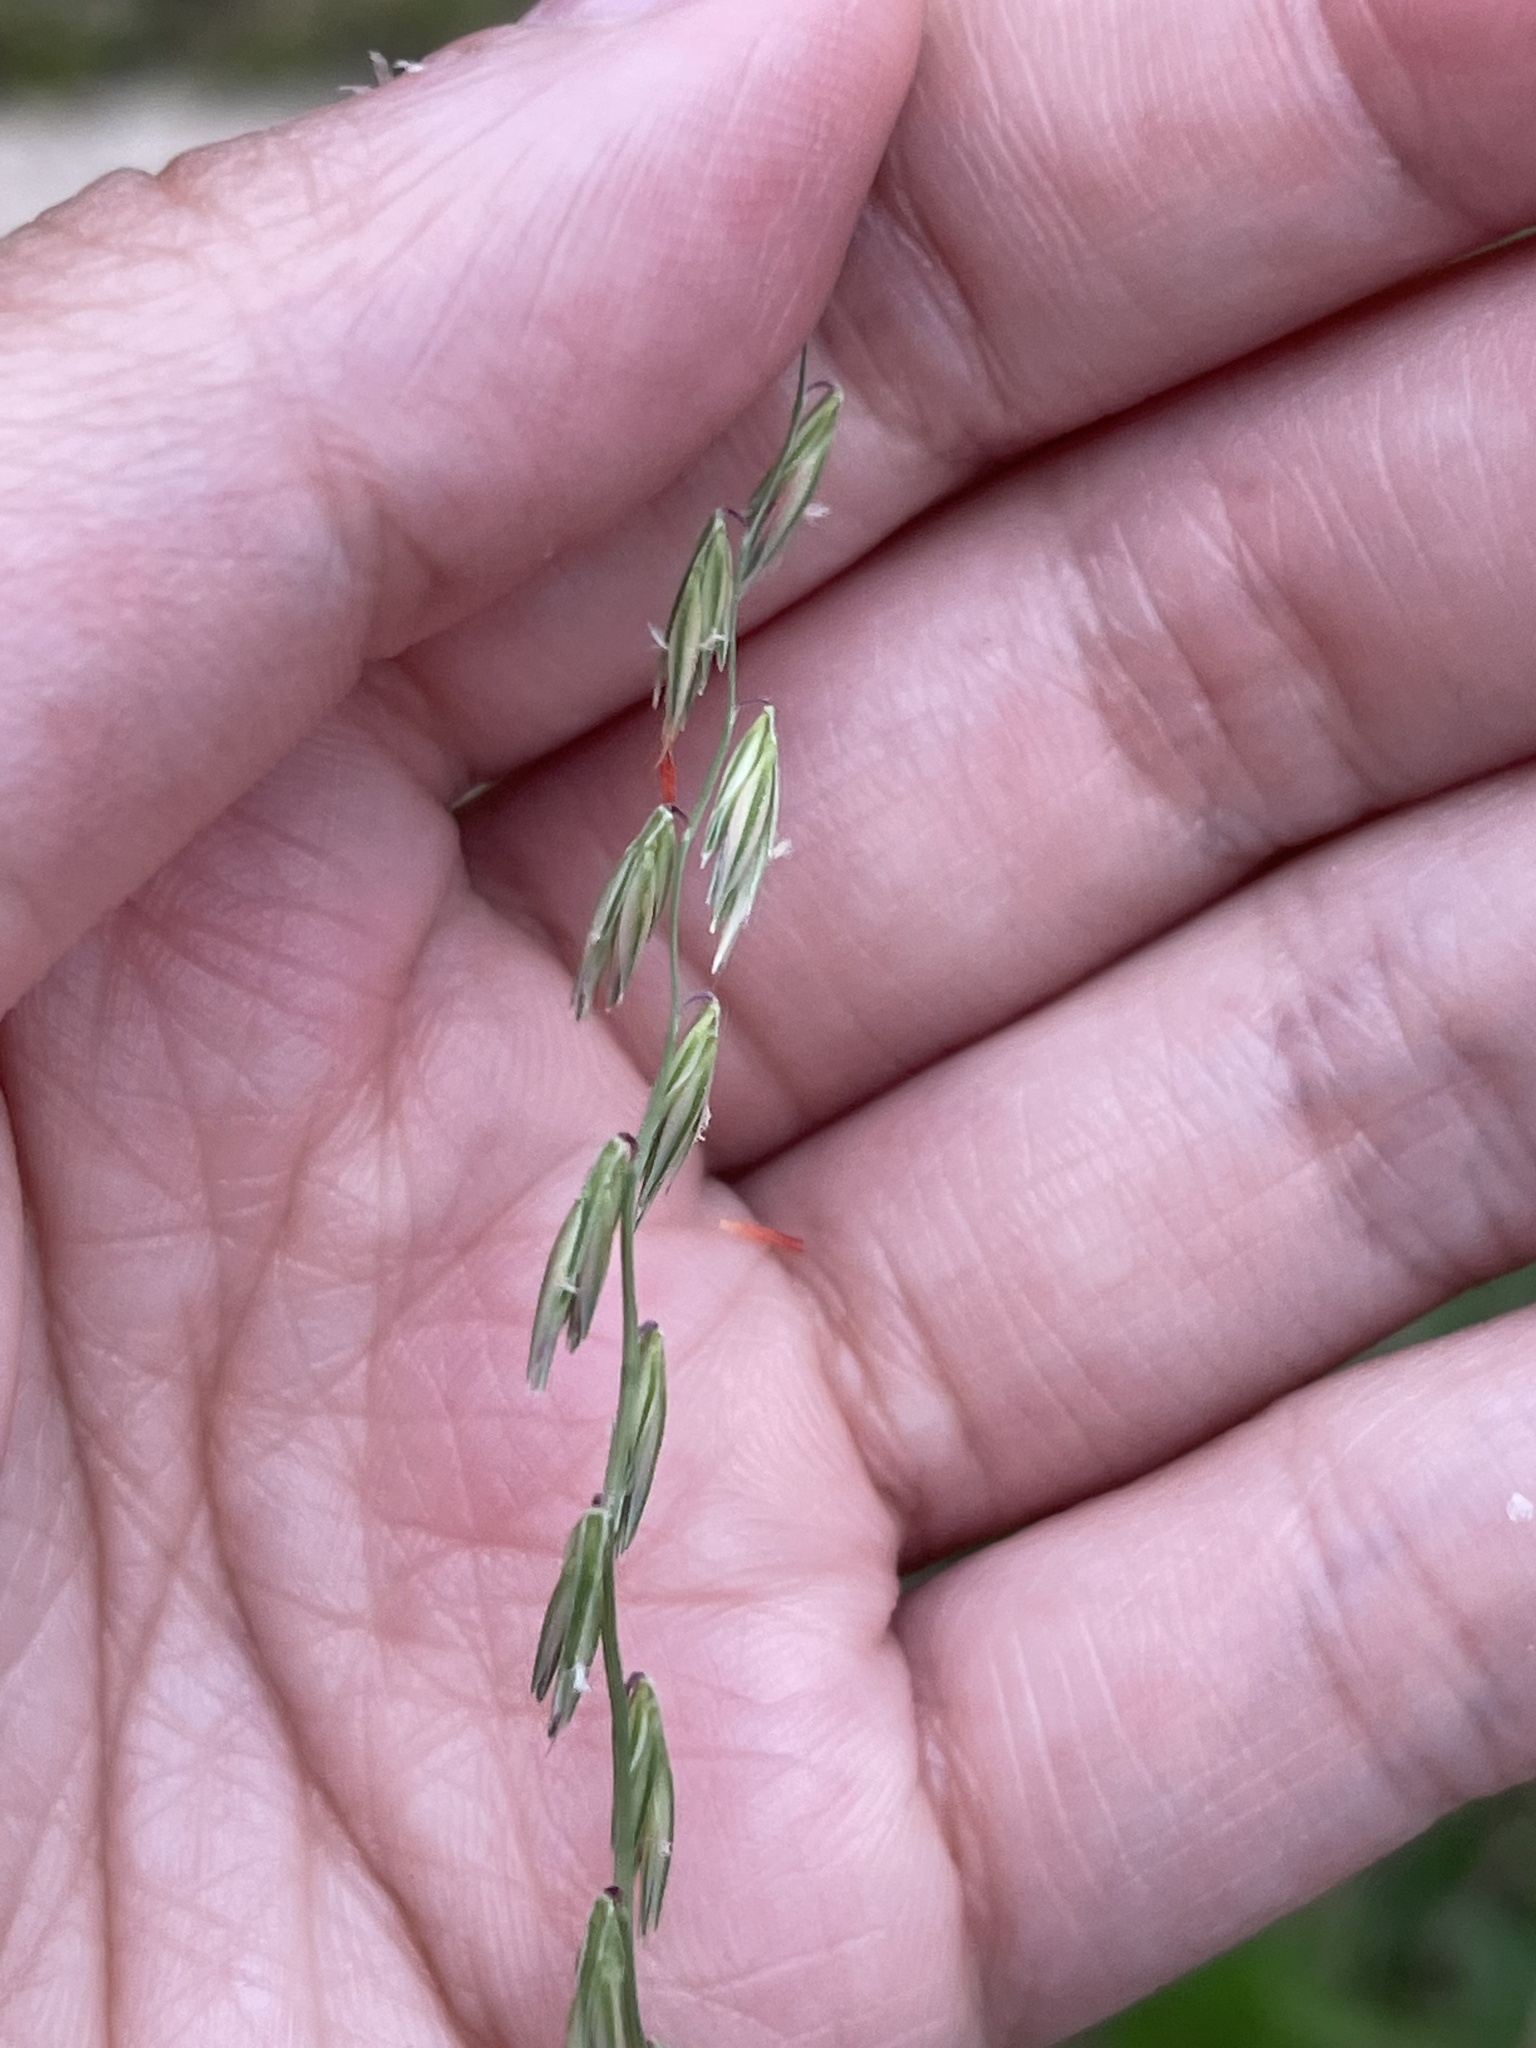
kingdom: Plantae
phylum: Tracheophyta
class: Liliopsida
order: Poales
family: Poaceae
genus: Bouteloua
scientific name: Bouteloua curtipendula
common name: Side-oats grama
